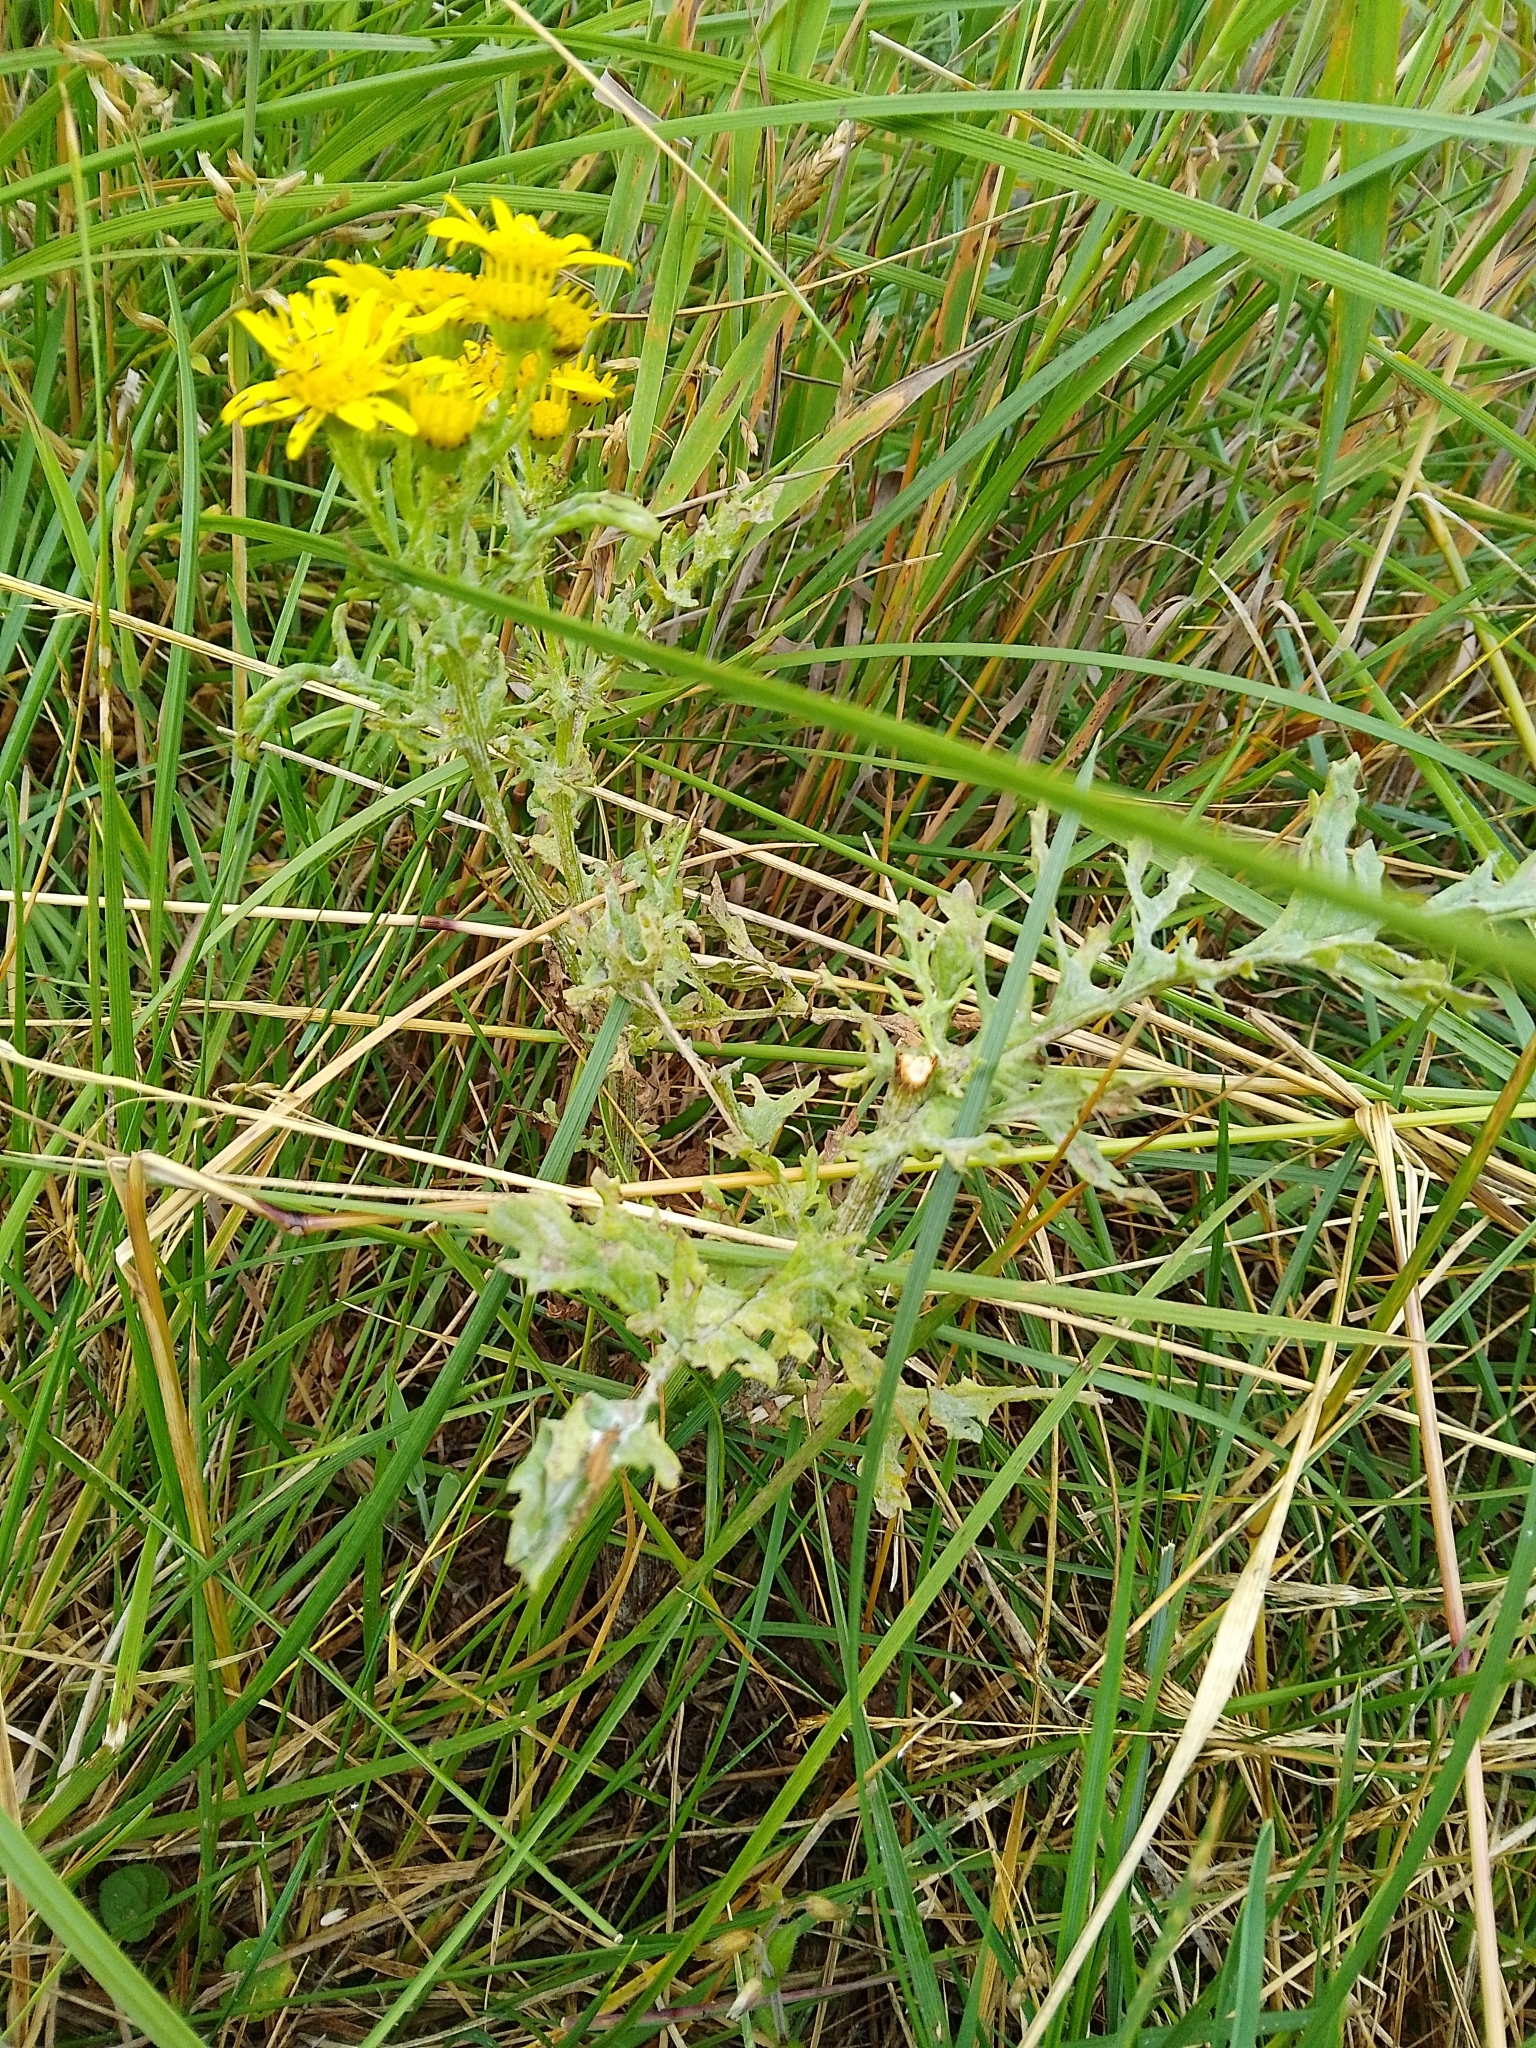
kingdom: Plantae
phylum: Tracheophyta
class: Magnoliopsida
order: Asterales
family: Asteraceae
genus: Jacobaea
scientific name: Jacobaea vulgaris
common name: Stinking willie
